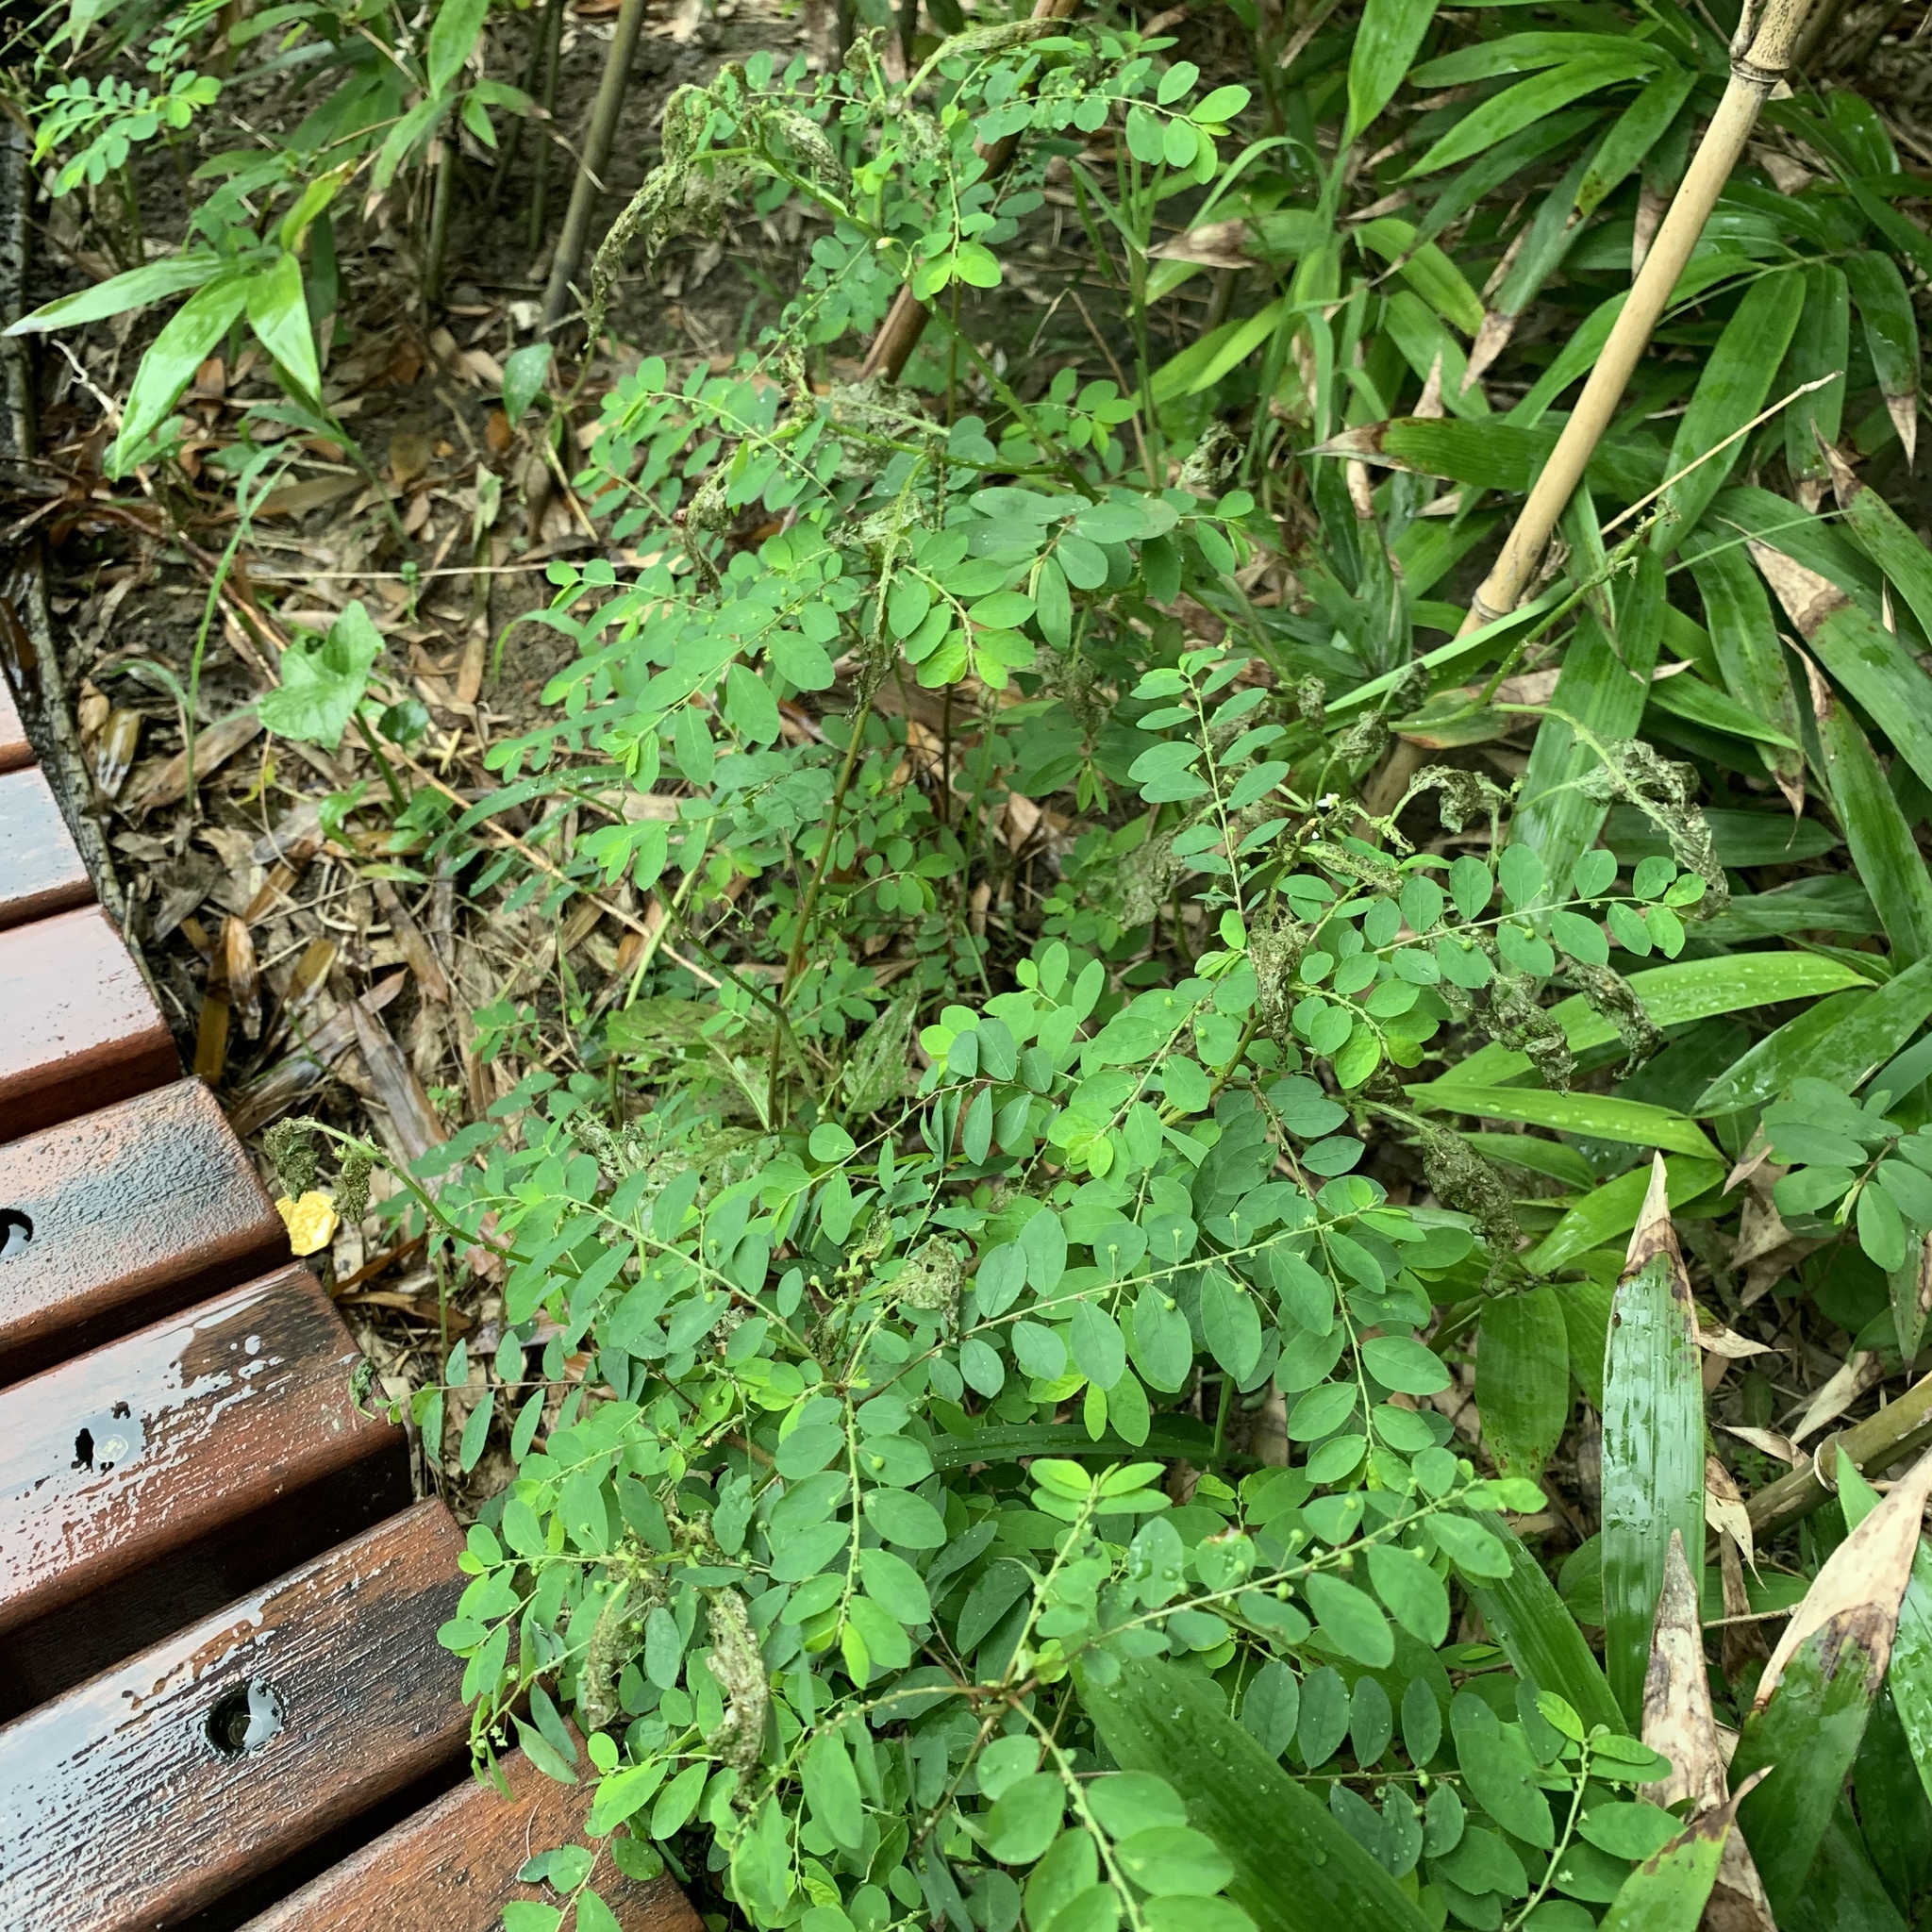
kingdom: Plantae
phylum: Tracheophyta
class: Magnoliopsida
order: Malpighiales
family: Phyllanthaceae
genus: Phyllanthus
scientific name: Phyllanthus tenellus
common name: Mascarene island leaf-flower
